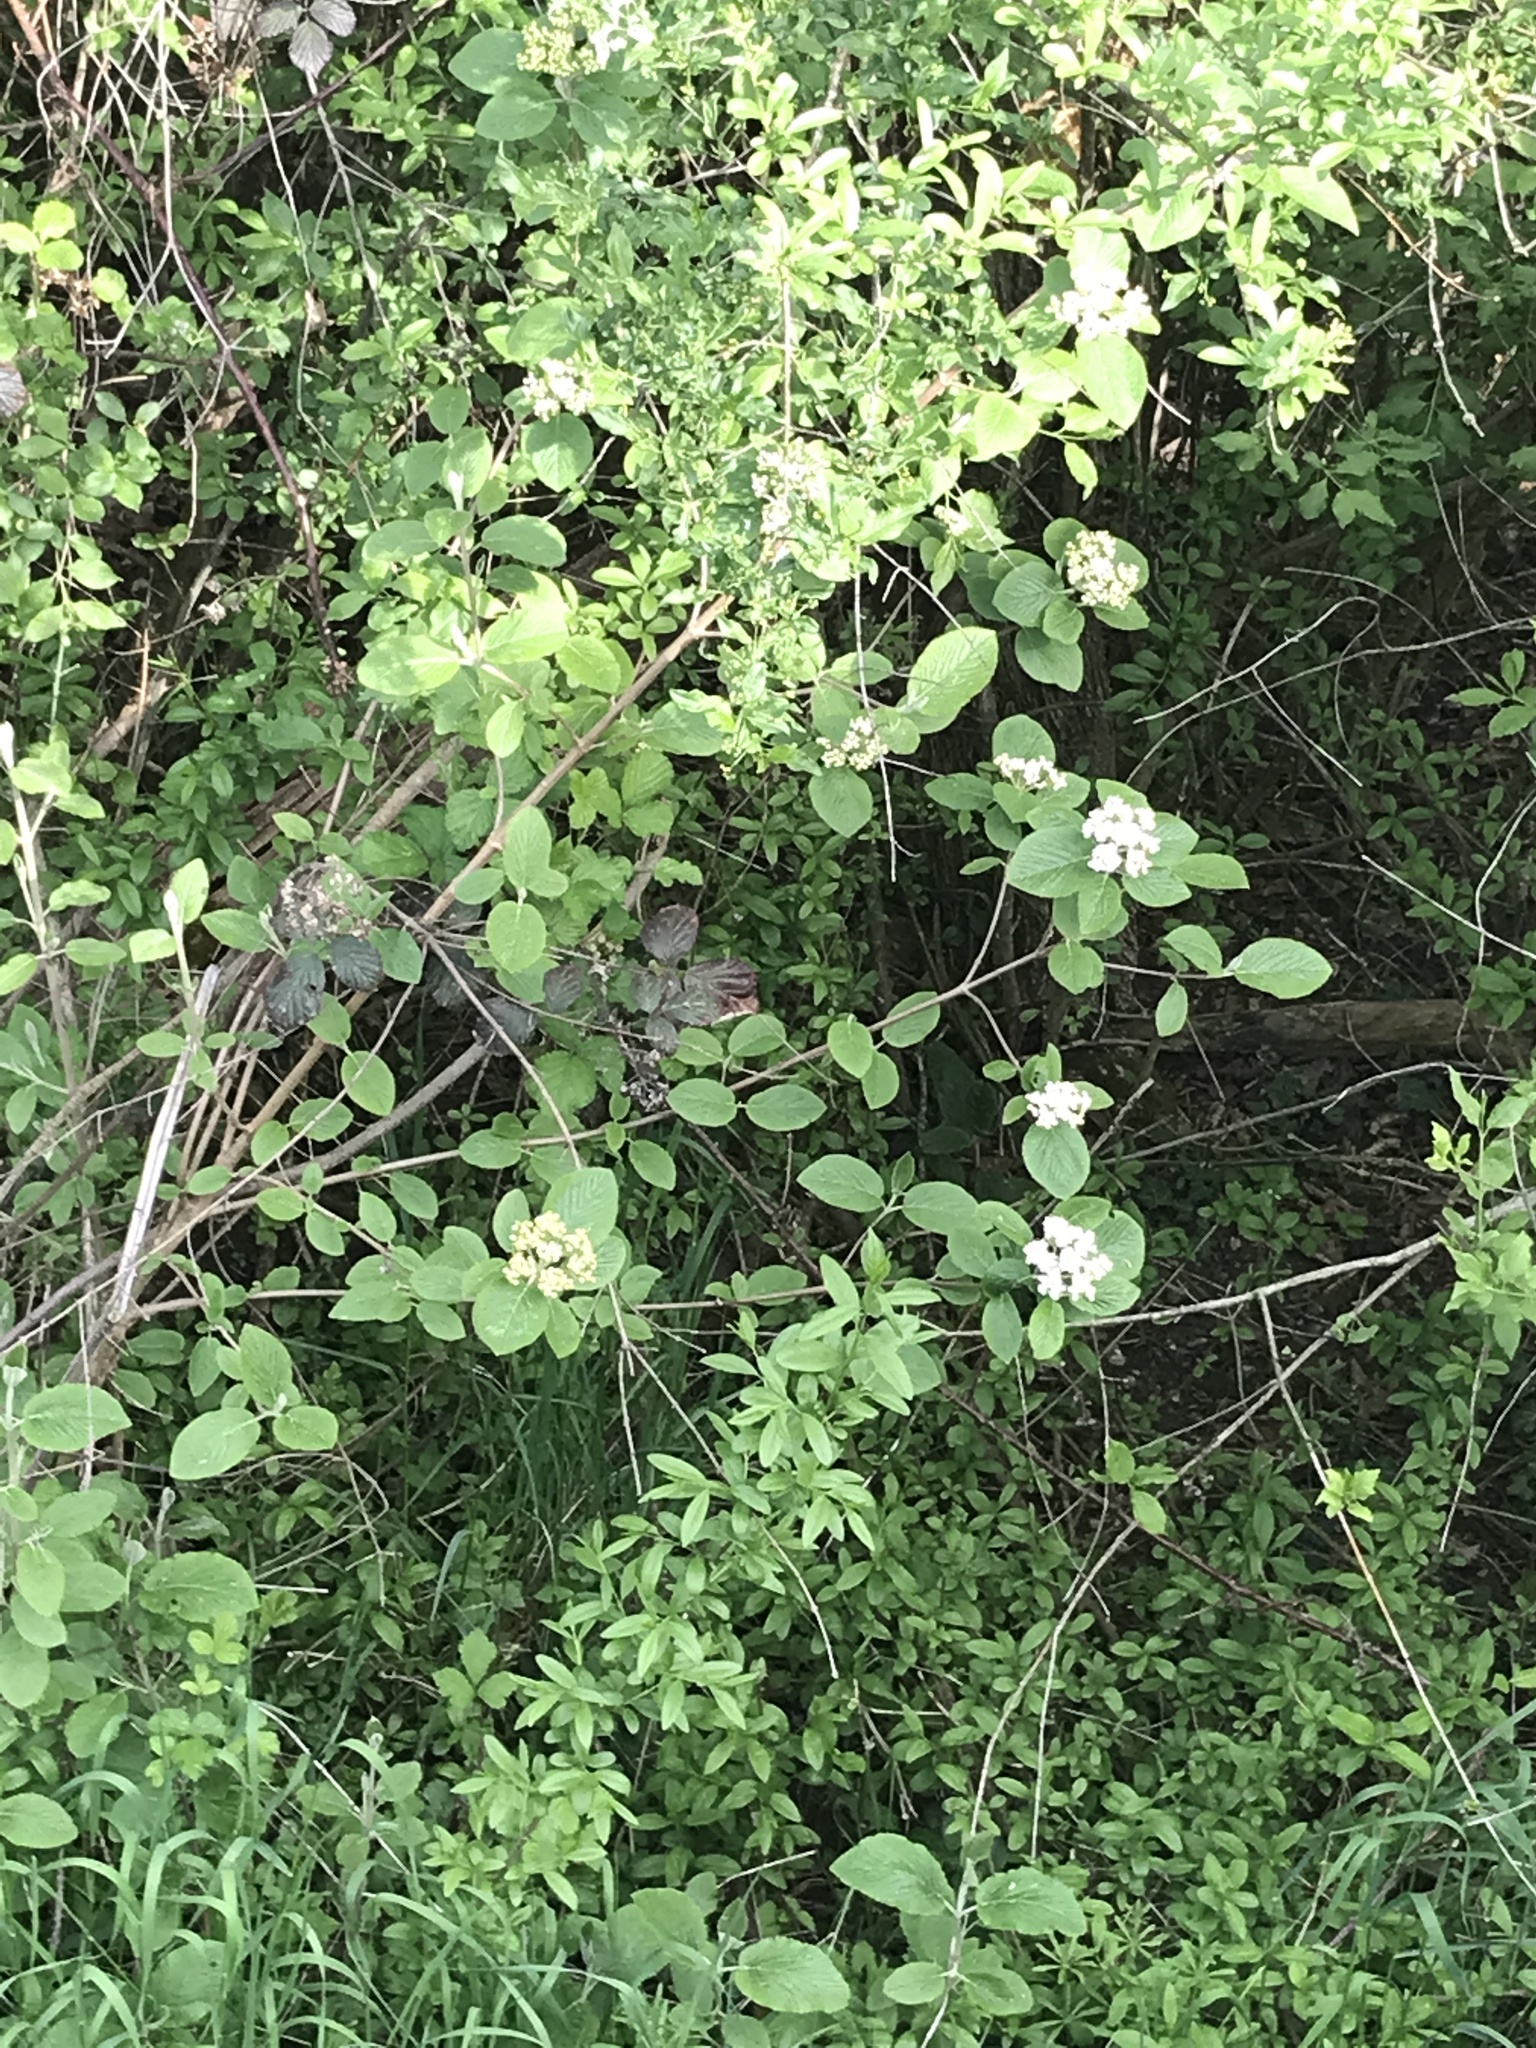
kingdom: Plantae
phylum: Tracheophyta
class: Magnoliopsida
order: Dipsacales
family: Viburnaceae
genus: Viburnum
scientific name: Viburnum lantana
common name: Wayfaring tree
